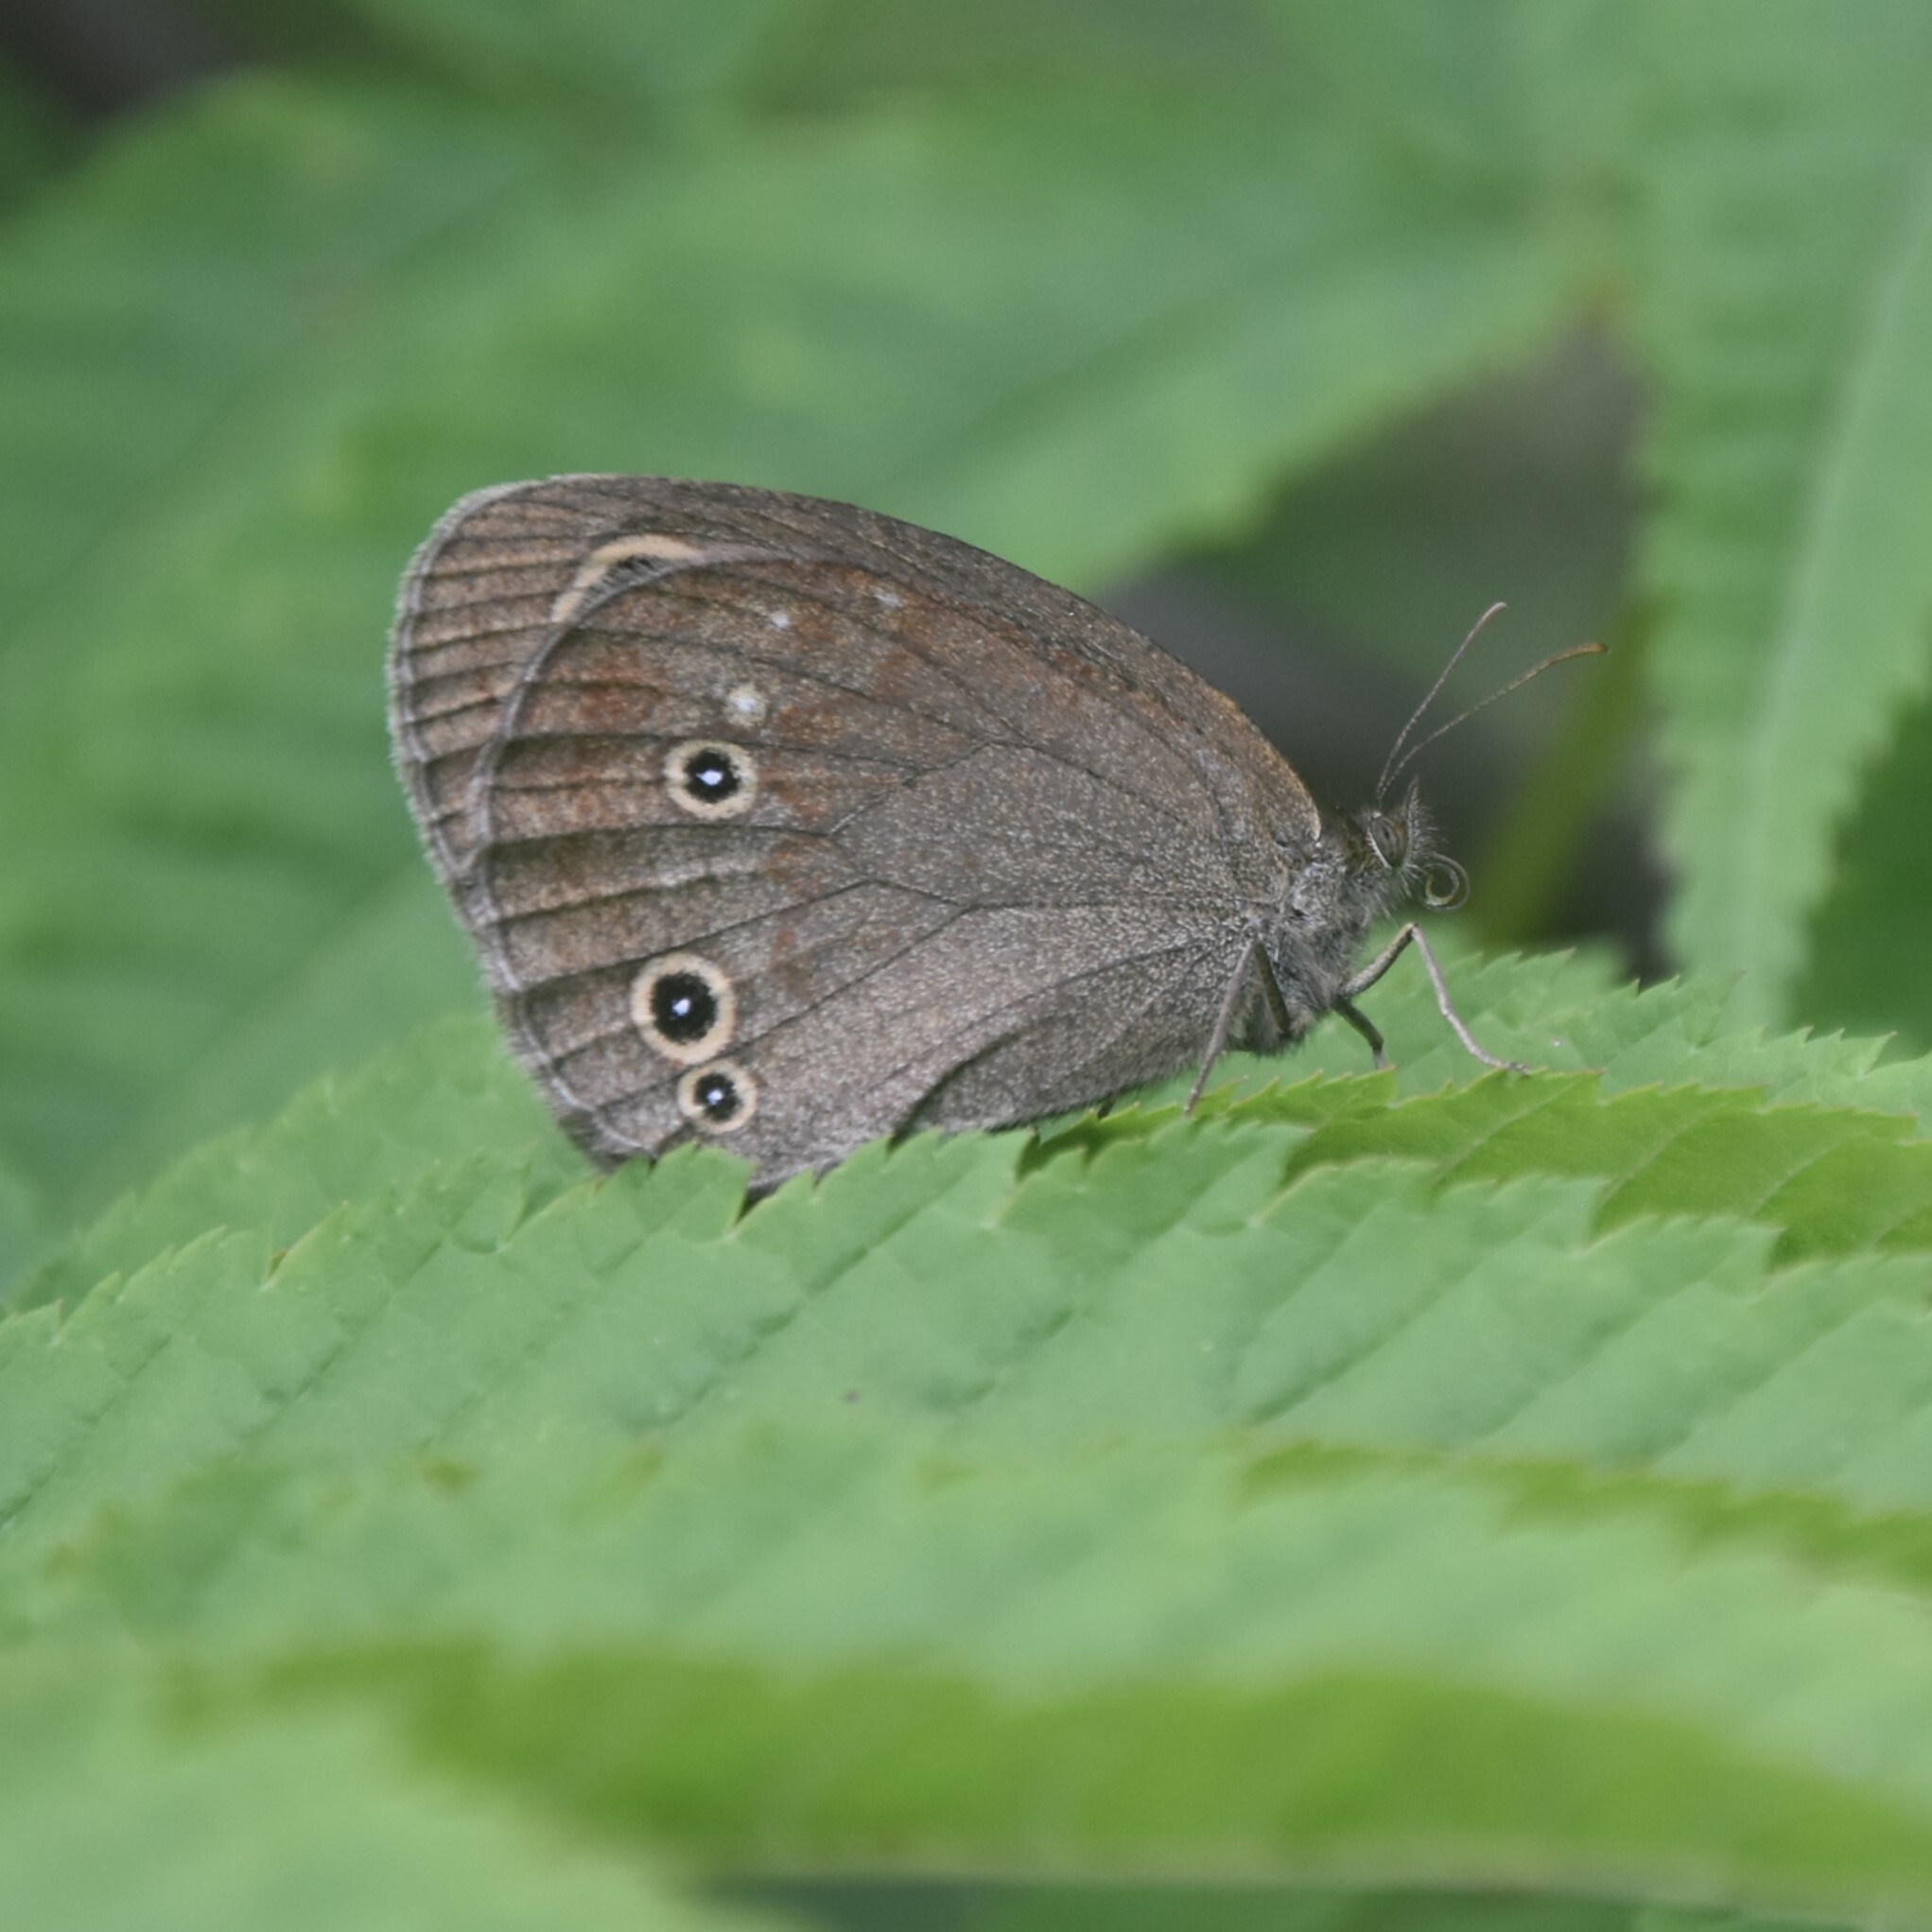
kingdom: Animalia
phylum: Arthropoda
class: Insecta
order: Lepidoptera
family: Nymphalidae
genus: Callerebia
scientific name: Callerebia nirmala
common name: Common argus
